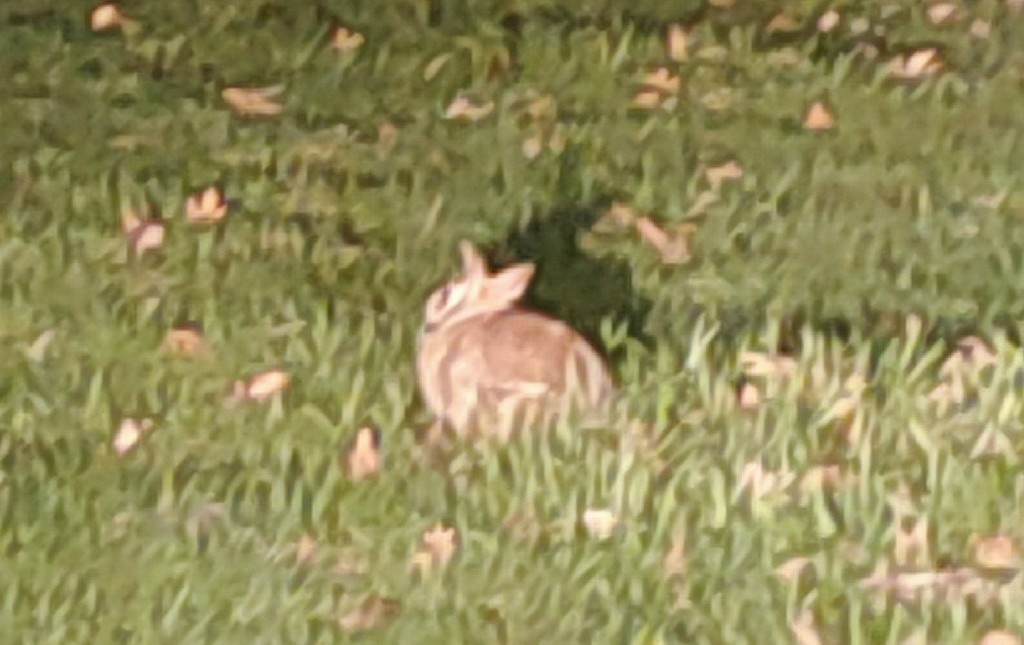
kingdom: Animalia
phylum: Chordata
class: Mammalia
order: Lagomorpha
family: Leporidae
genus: Sylvilagus
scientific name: Sylvilagus floridanus
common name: Eastern cottontail
